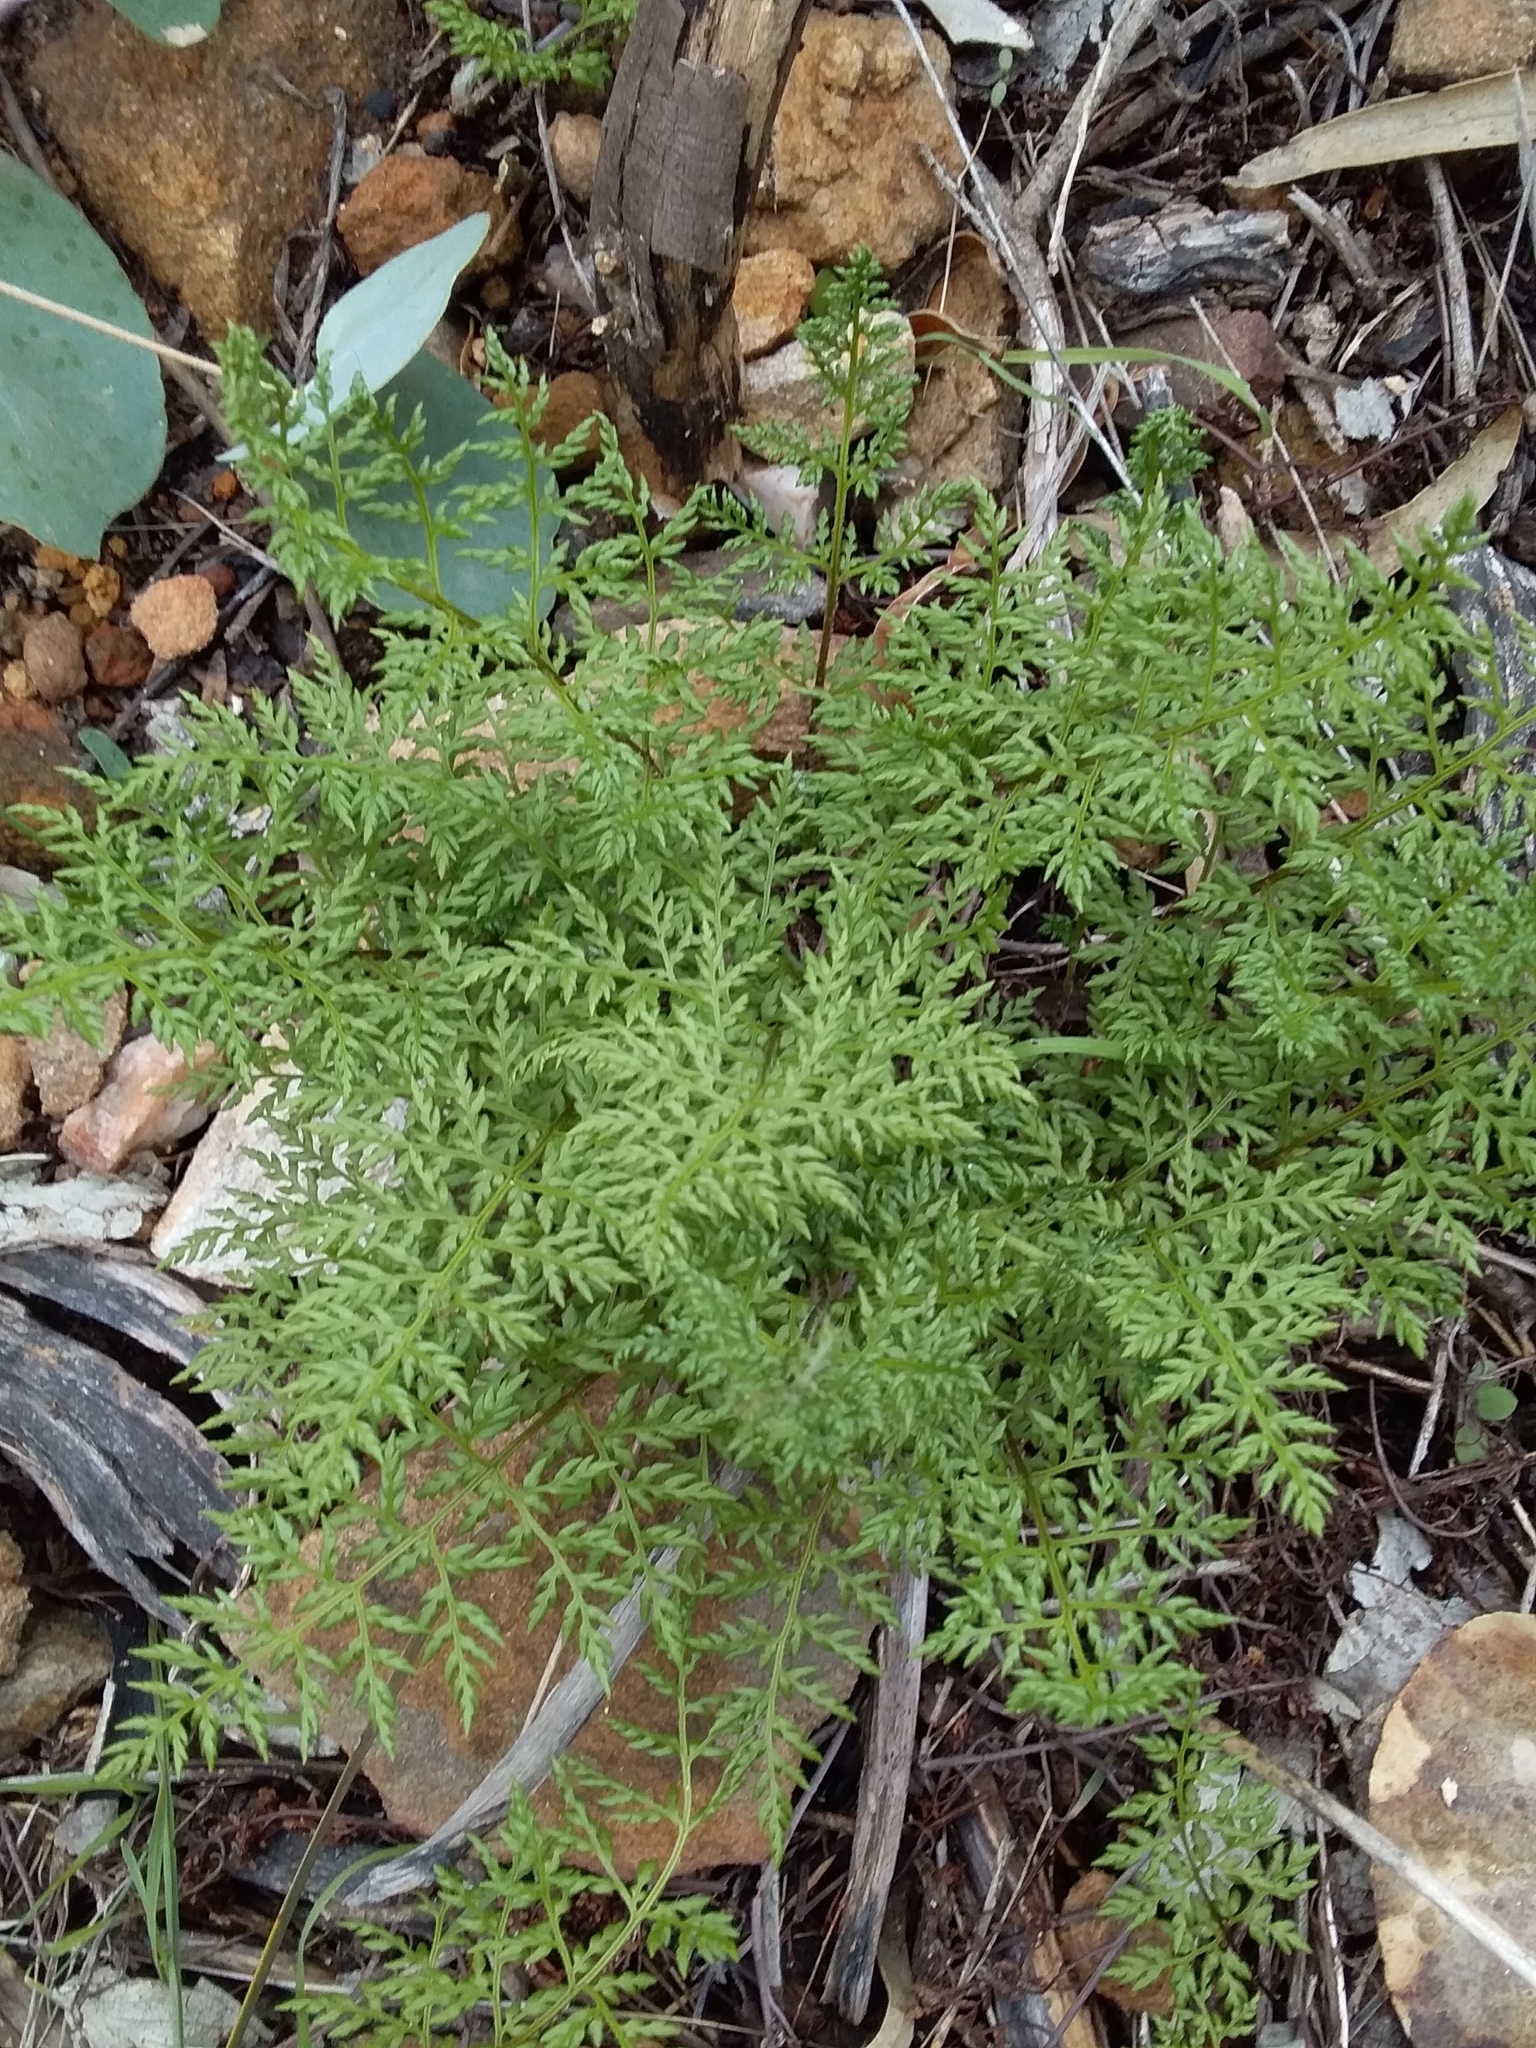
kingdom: Plantae
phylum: Tracheophyta
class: Polypodiopsida
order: Polypodiales
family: Pteridaceae
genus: Cheilanthes
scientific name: Cheilanthes austrotenuifolia
